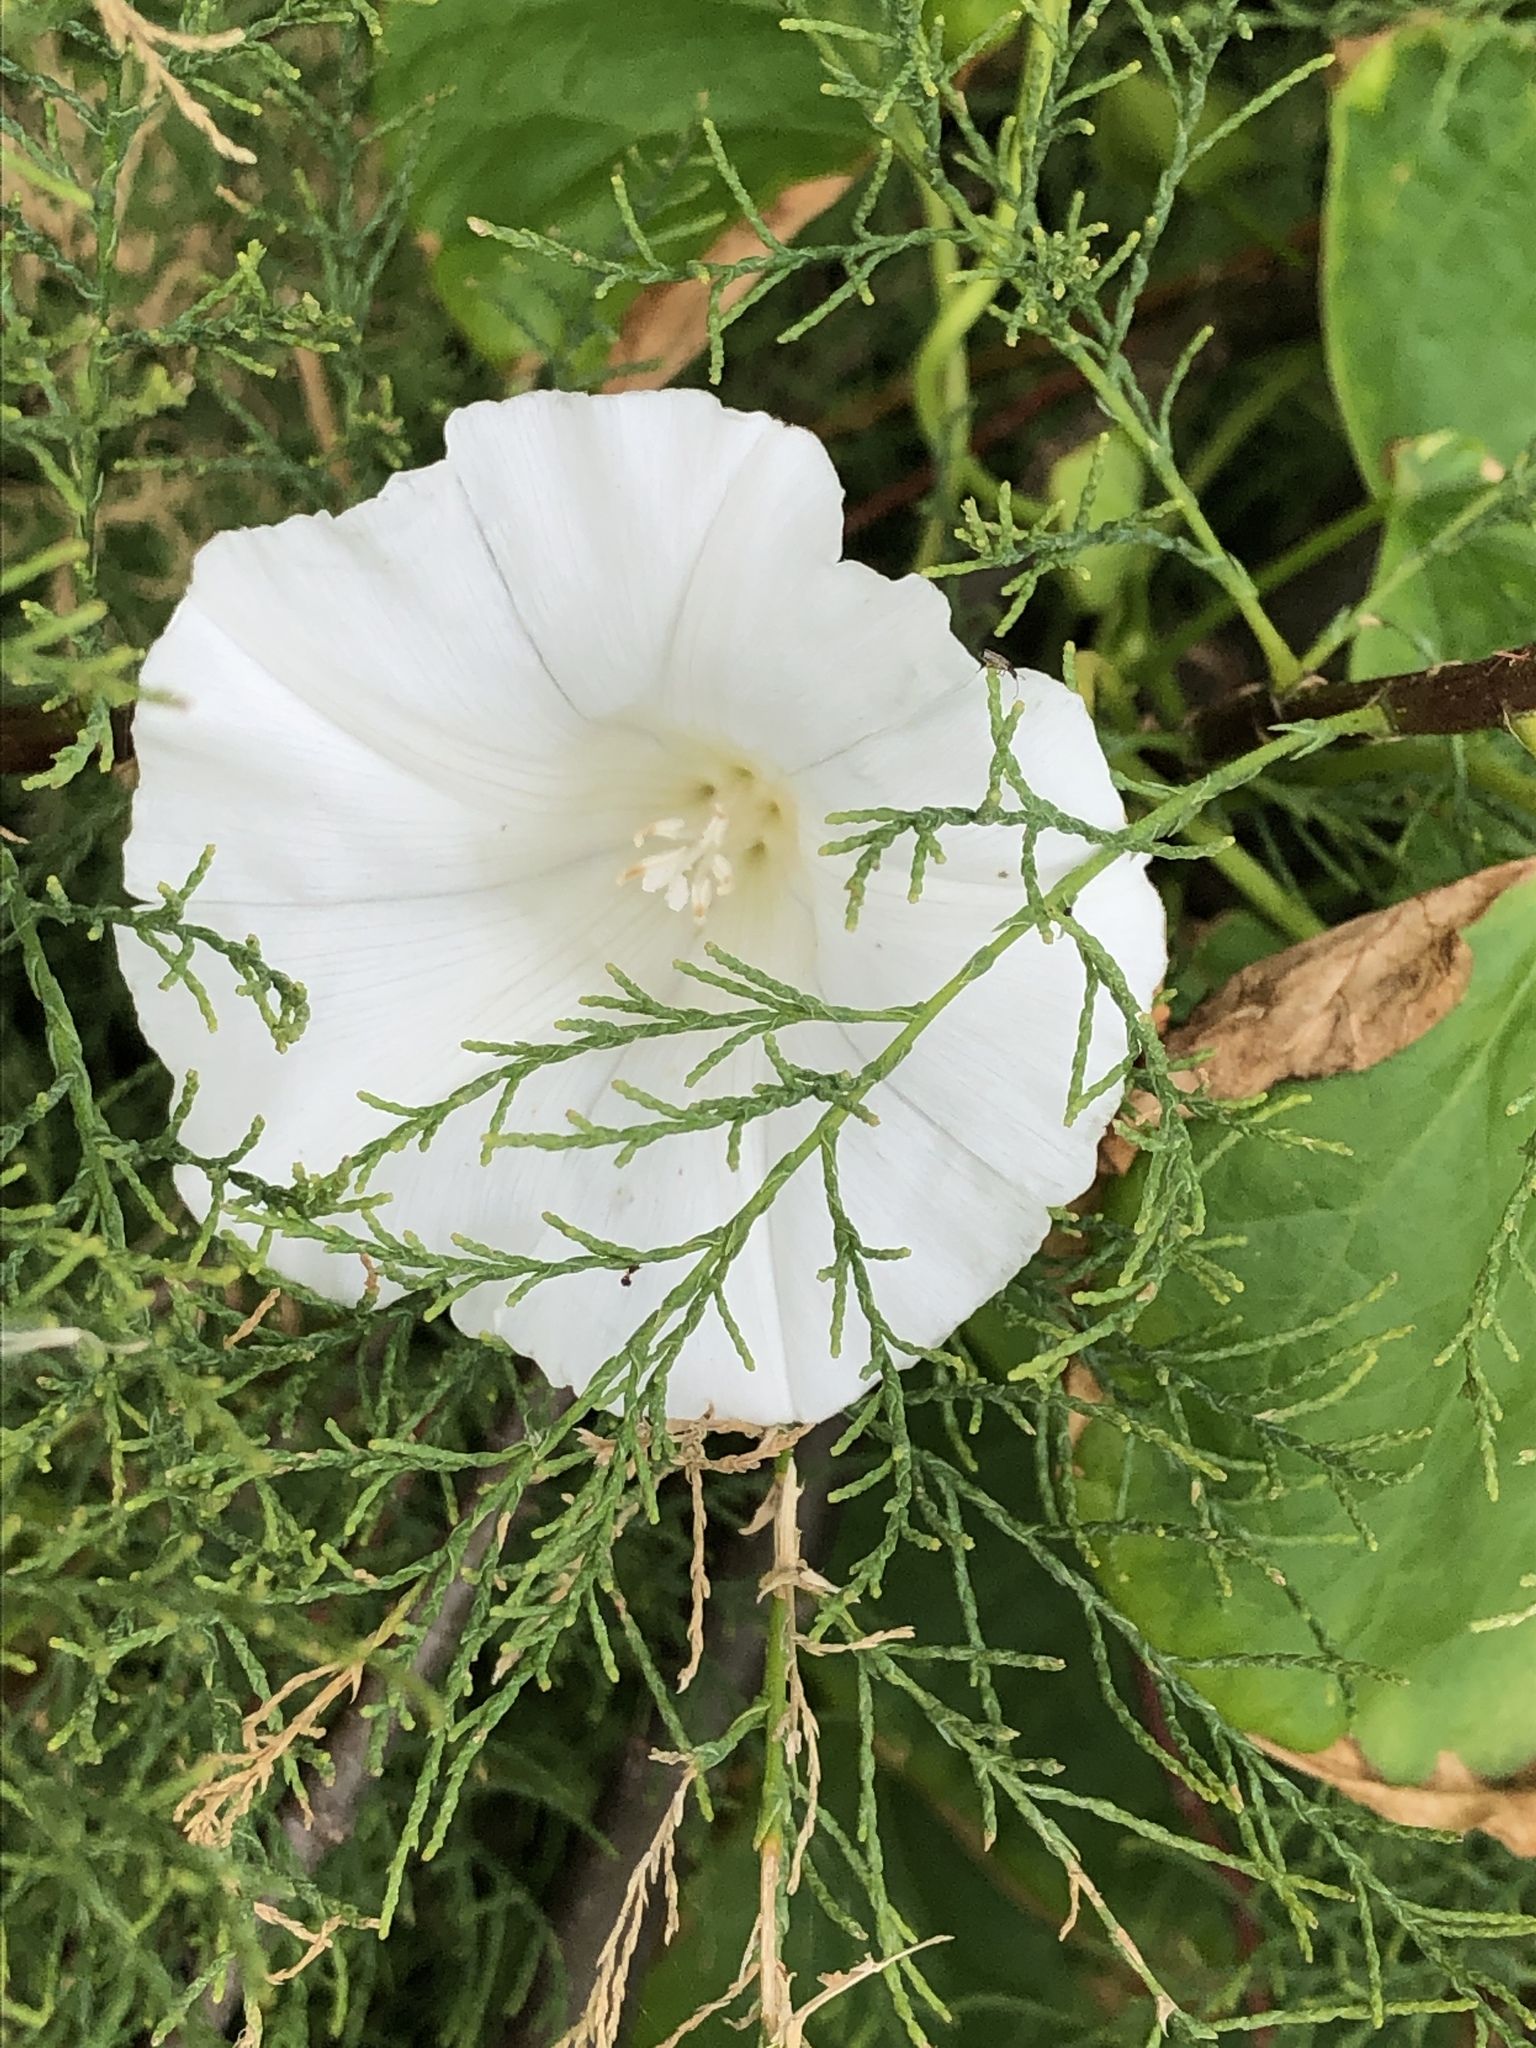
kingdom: Plantae
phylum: Tracheophyta
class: Magnoliopsida
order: Solanales
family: Convolvulaceae
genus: Calystegia
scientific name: Calystegia
